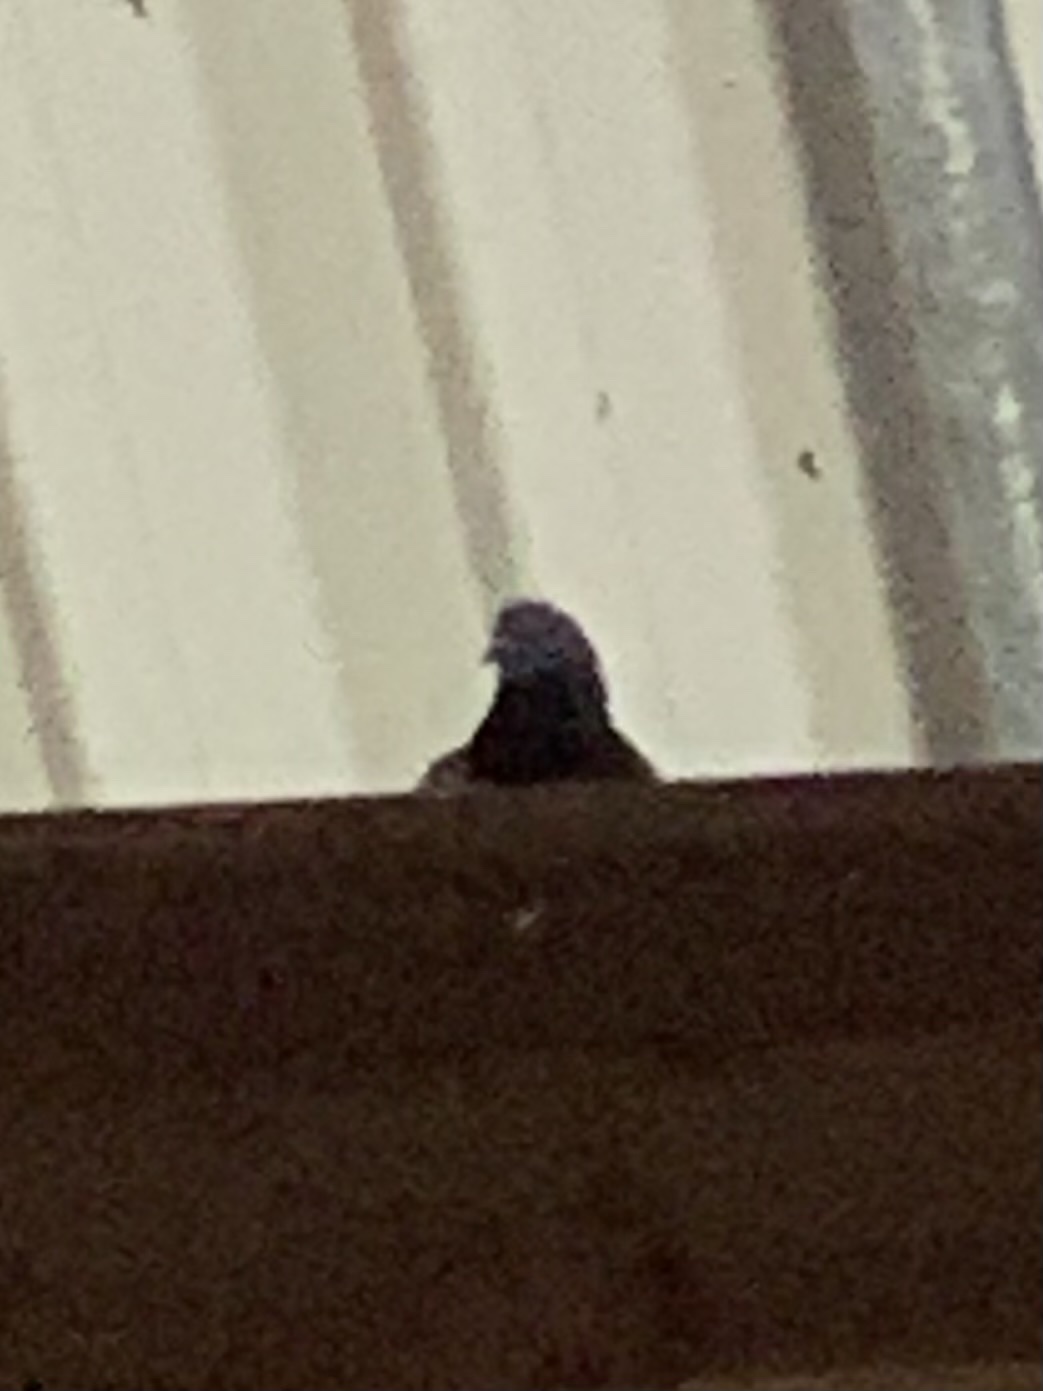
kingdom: Animalia
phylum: Chordata
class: Aves
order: Columbiformes
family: Columbidae
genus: Columba
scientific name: Columba livia
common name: Rock pigeon
